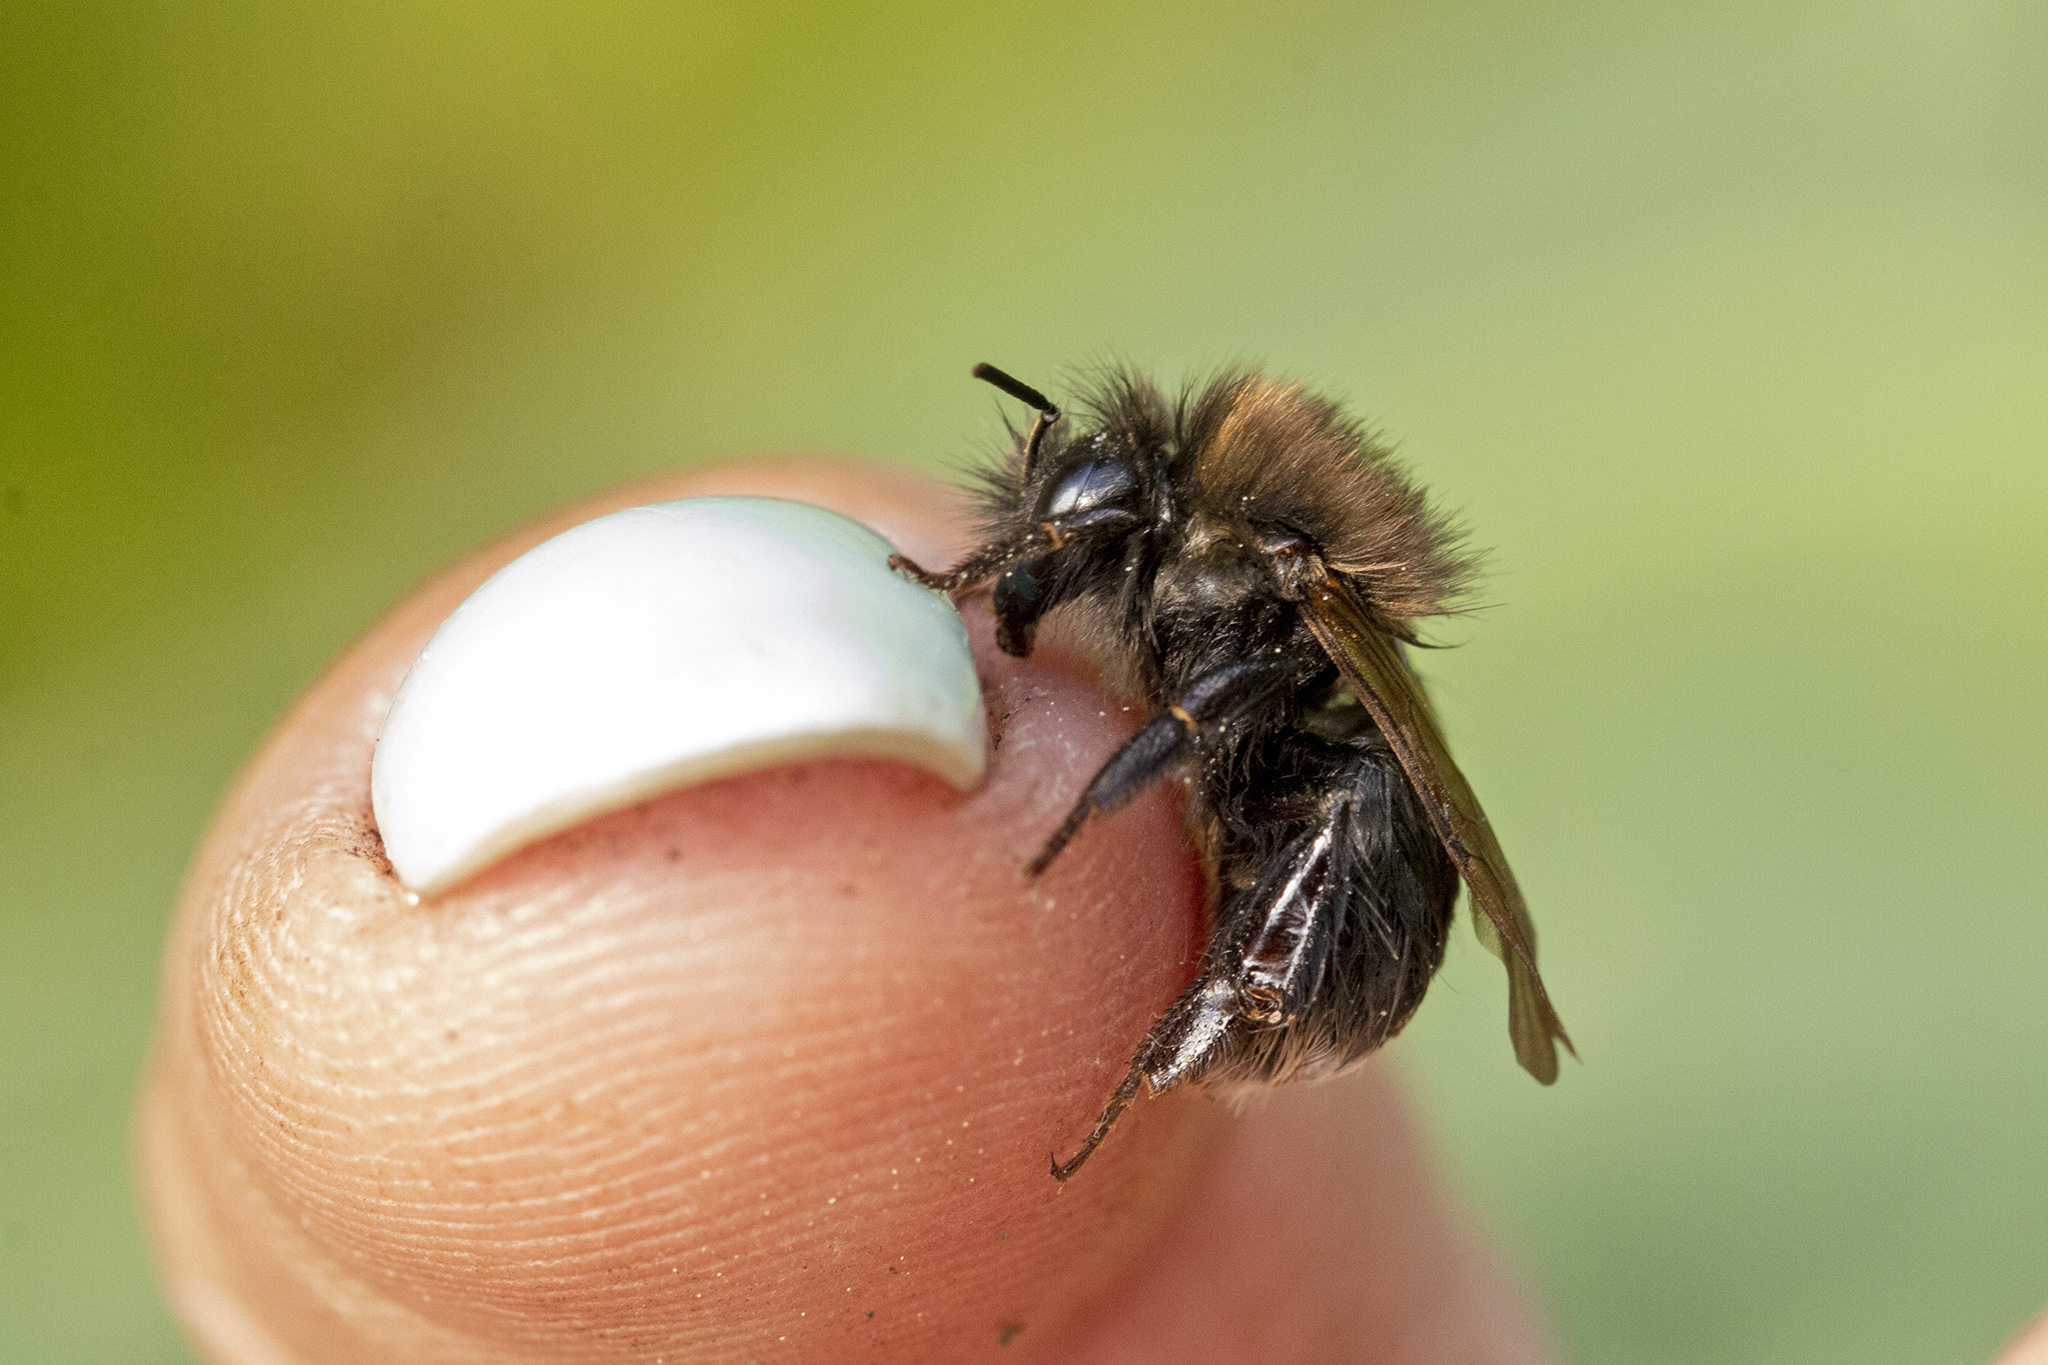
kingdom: Animalia
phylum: Arthropoda
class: Insecta
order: Hymenoptera
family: Apidae
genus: Bombus
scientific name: Bombus hypnorum
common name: New garden bumblebee
